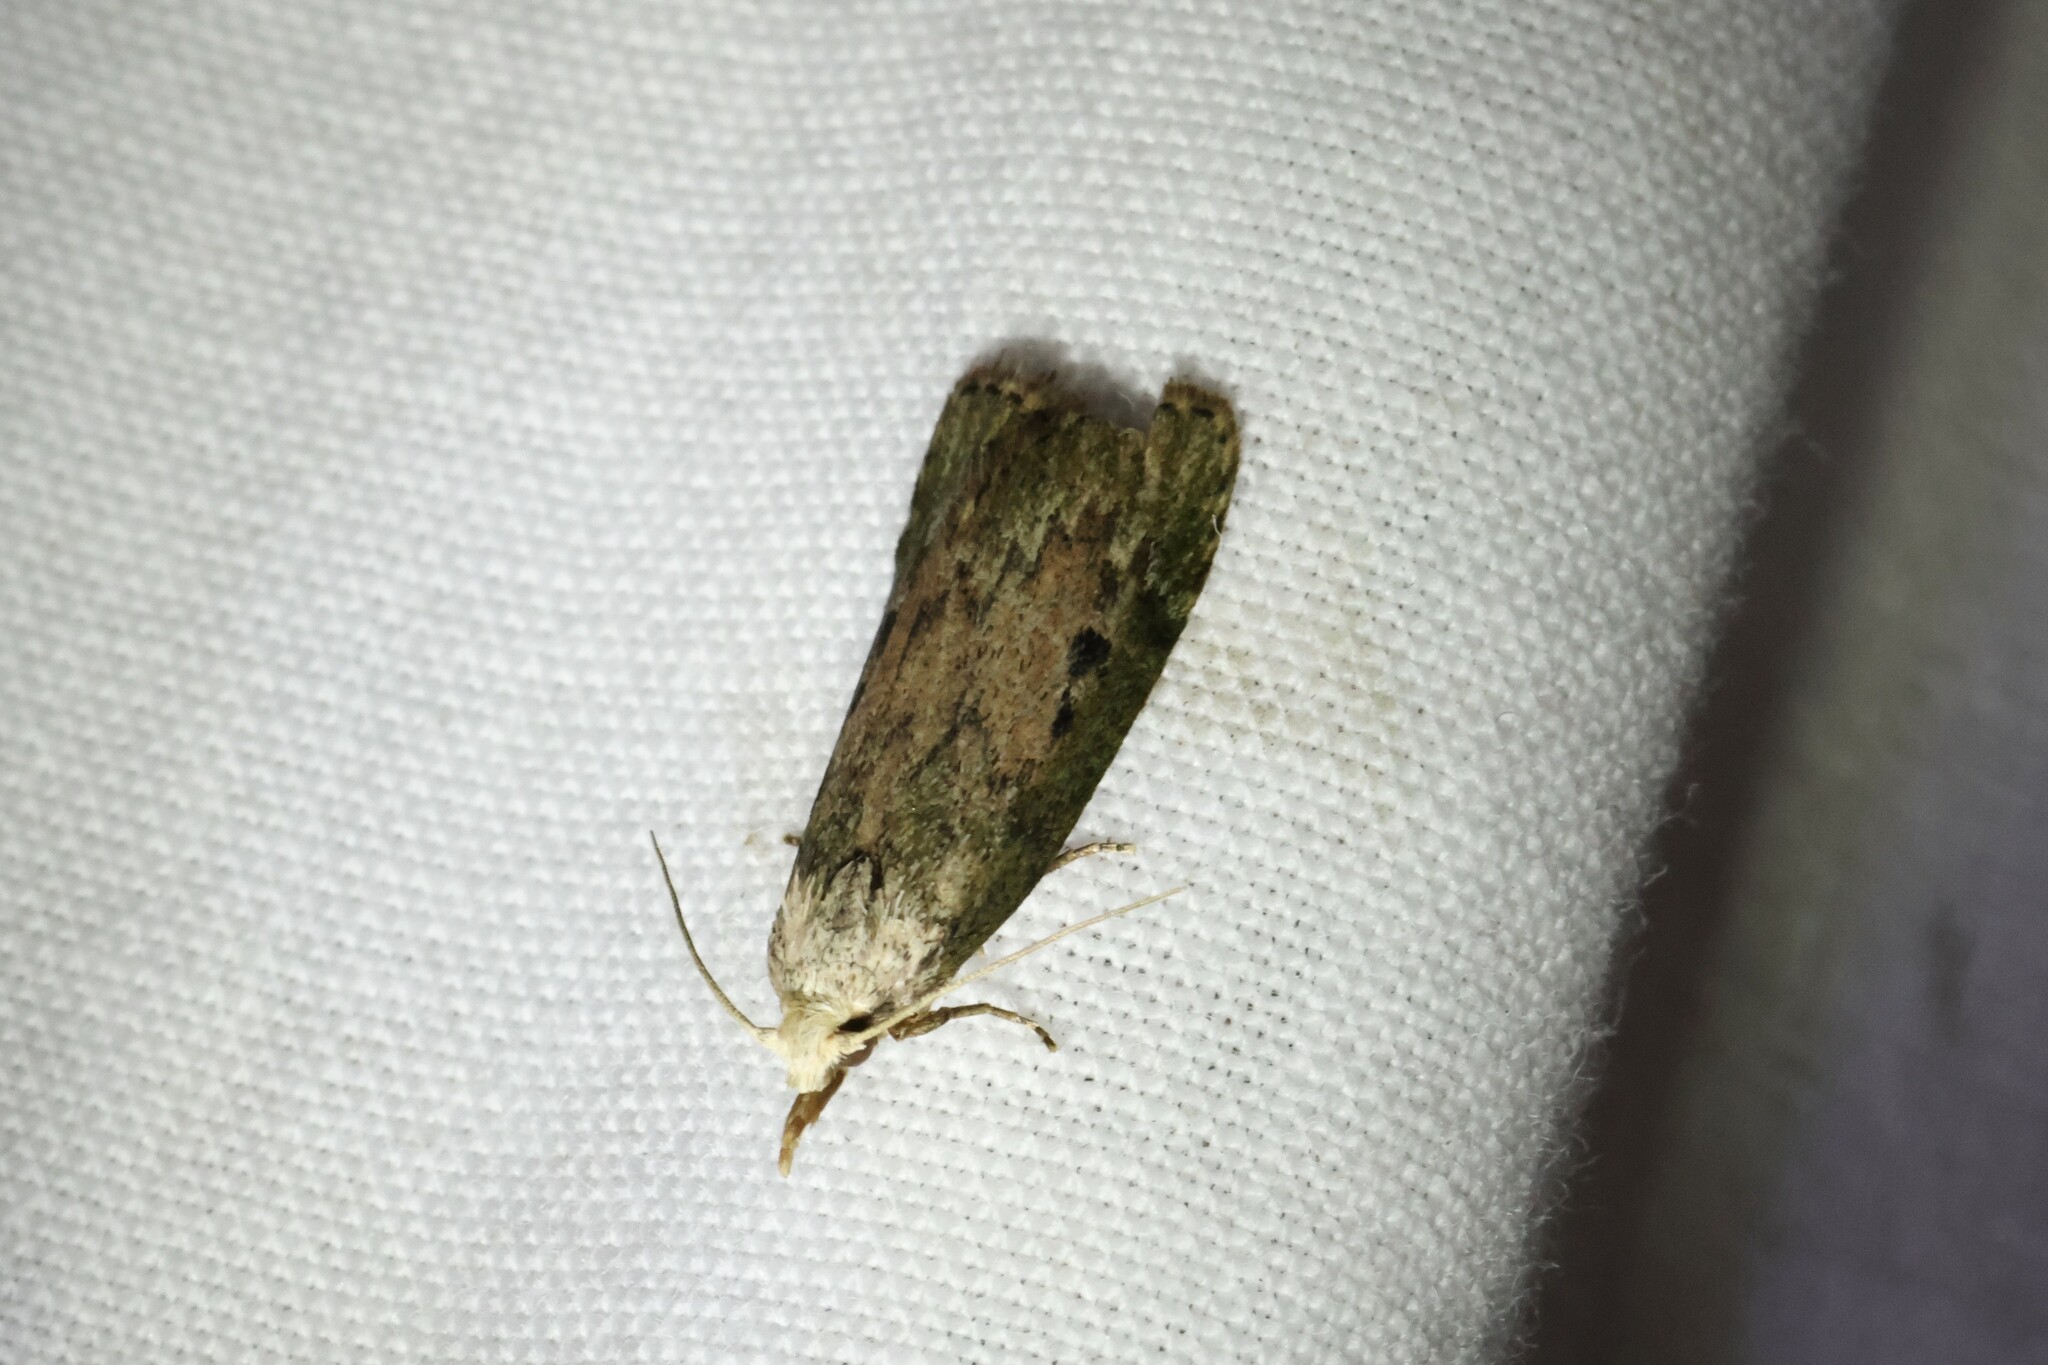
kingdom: Animalia
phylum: Arthropoda
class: Insecta
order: Lepidoptera
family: Pyralidae
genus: Aphomia
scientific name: Aphomia sociella
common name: Bee moth
